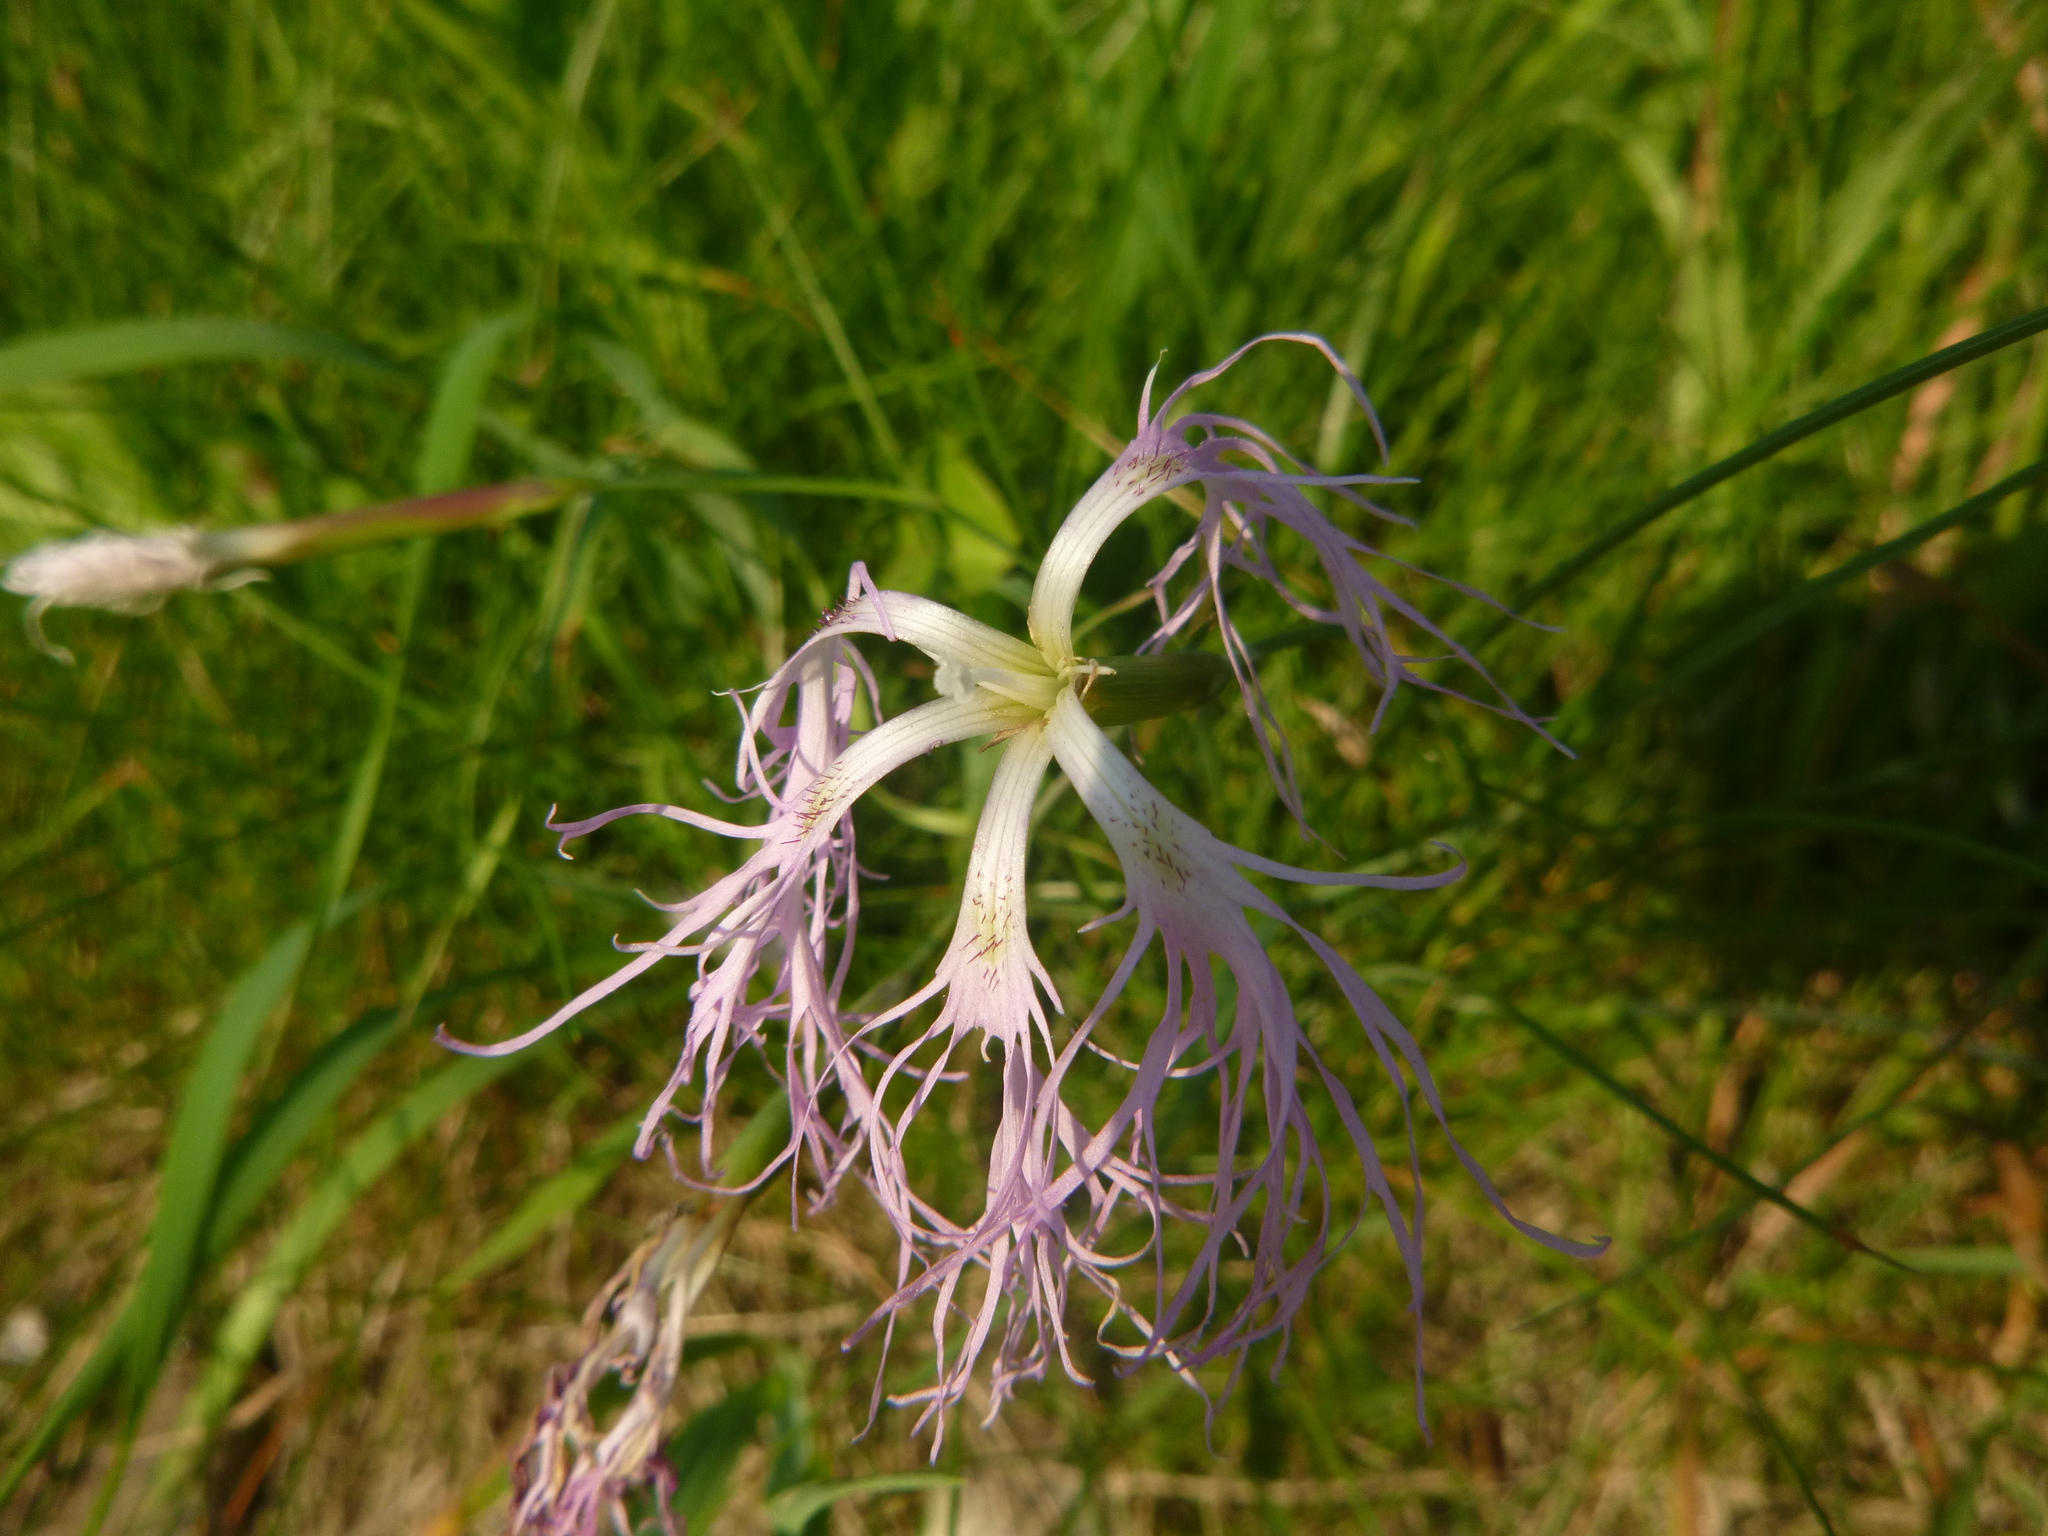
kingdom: Plantae
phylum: Tracheophyta
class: Magnoliopsida
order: Caryophyllales
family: Caryophyllaceae
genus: Dianthus
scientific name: Dianthus superbus
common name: Fringed pink
